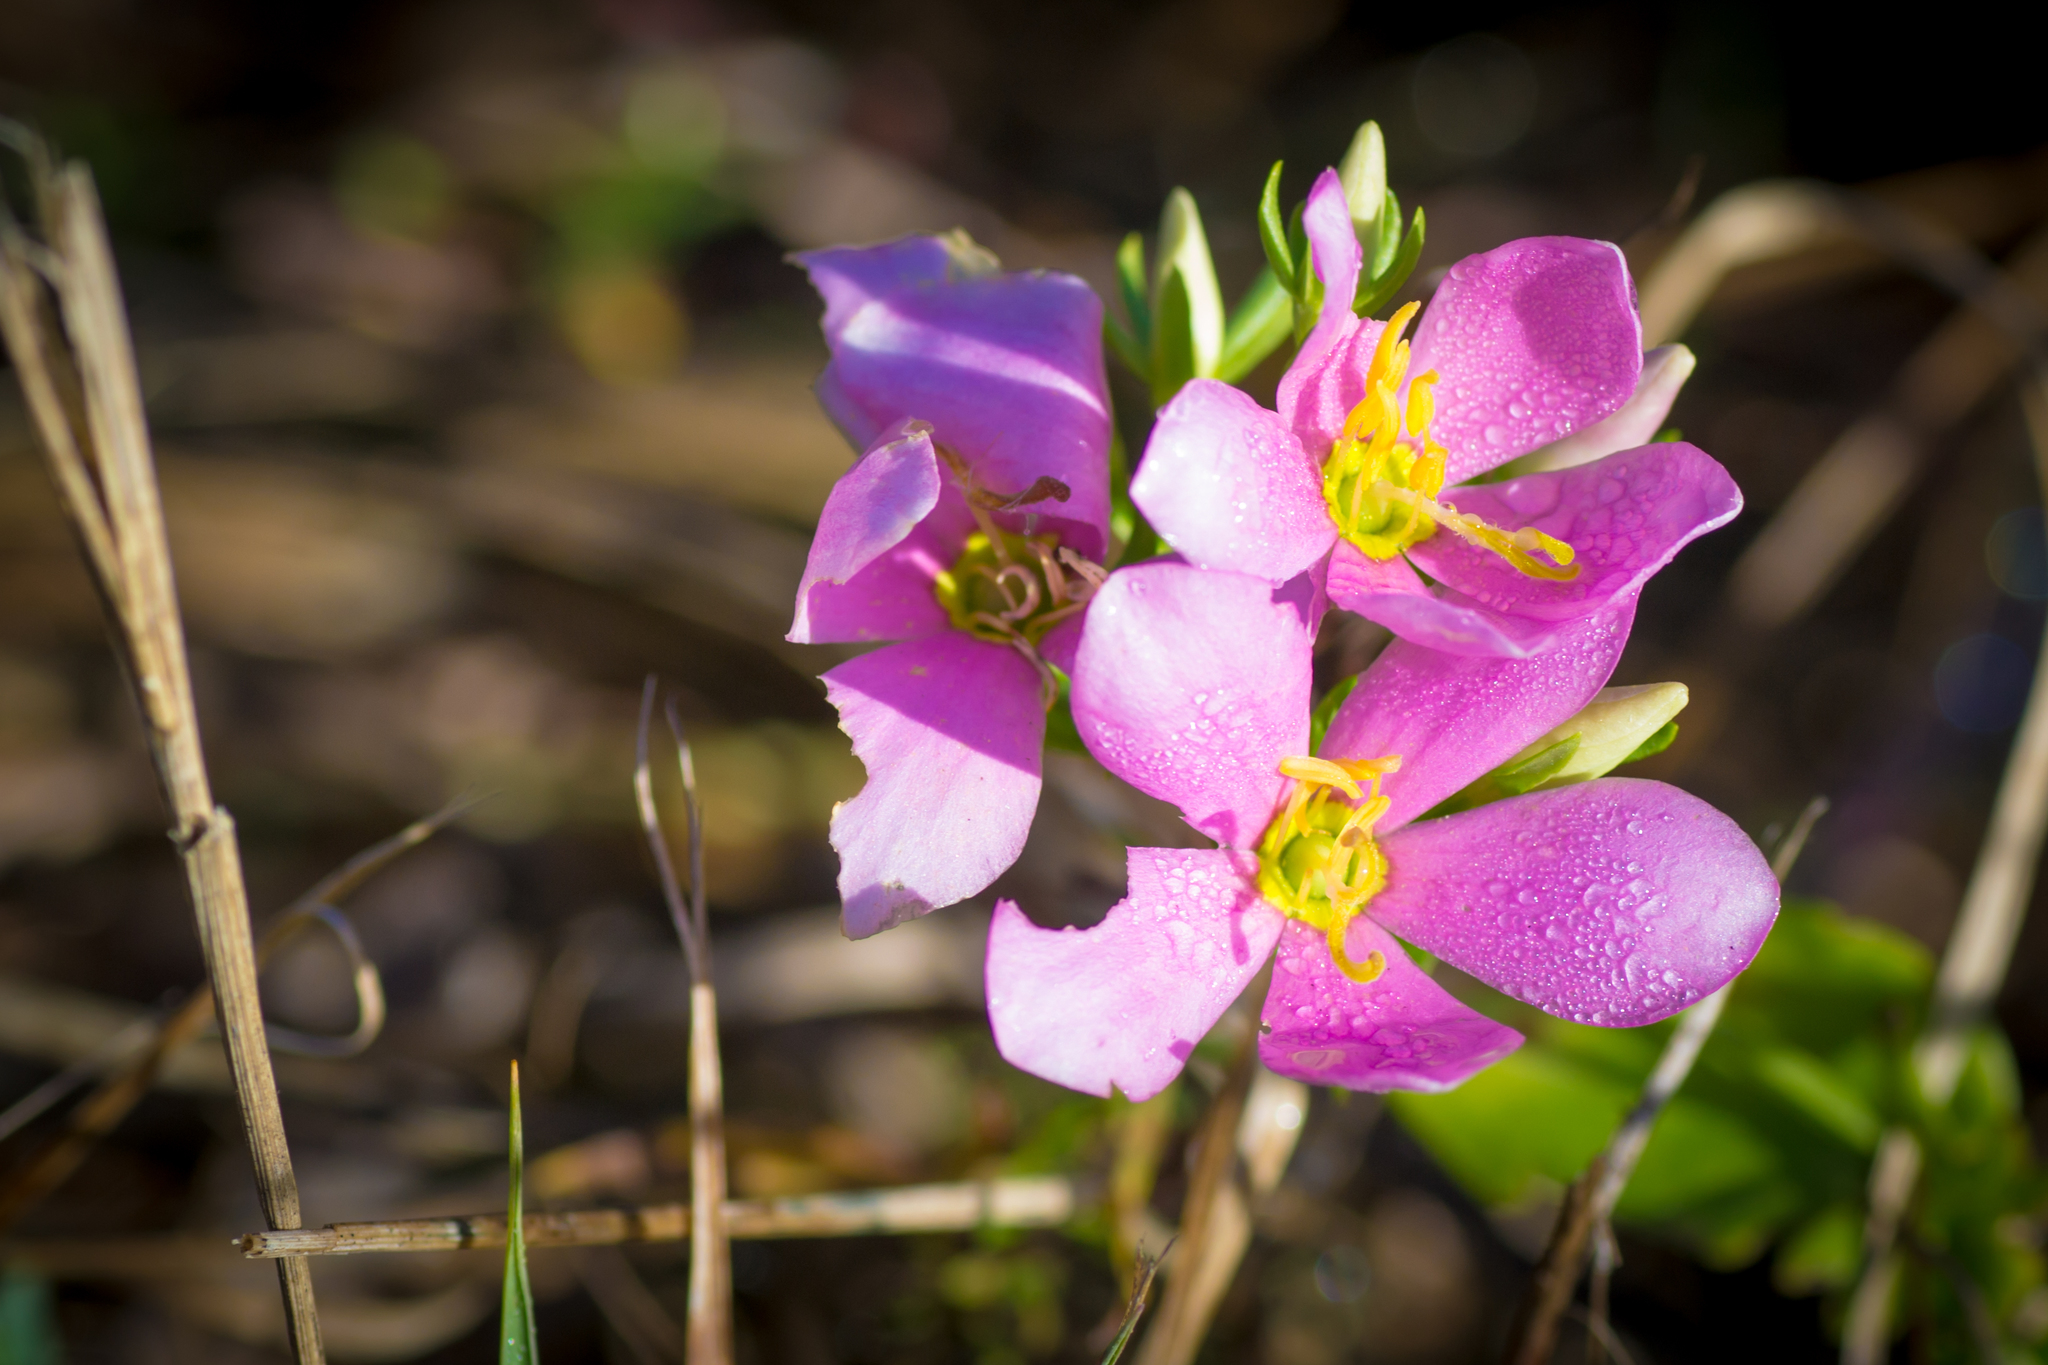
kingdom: Plantae
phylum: Tracheophyta
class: Magnoliopsida
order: Gentianales
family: Gentianaceae
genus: Sabatia
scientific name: Sabatia angularis
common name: Rose-pink
